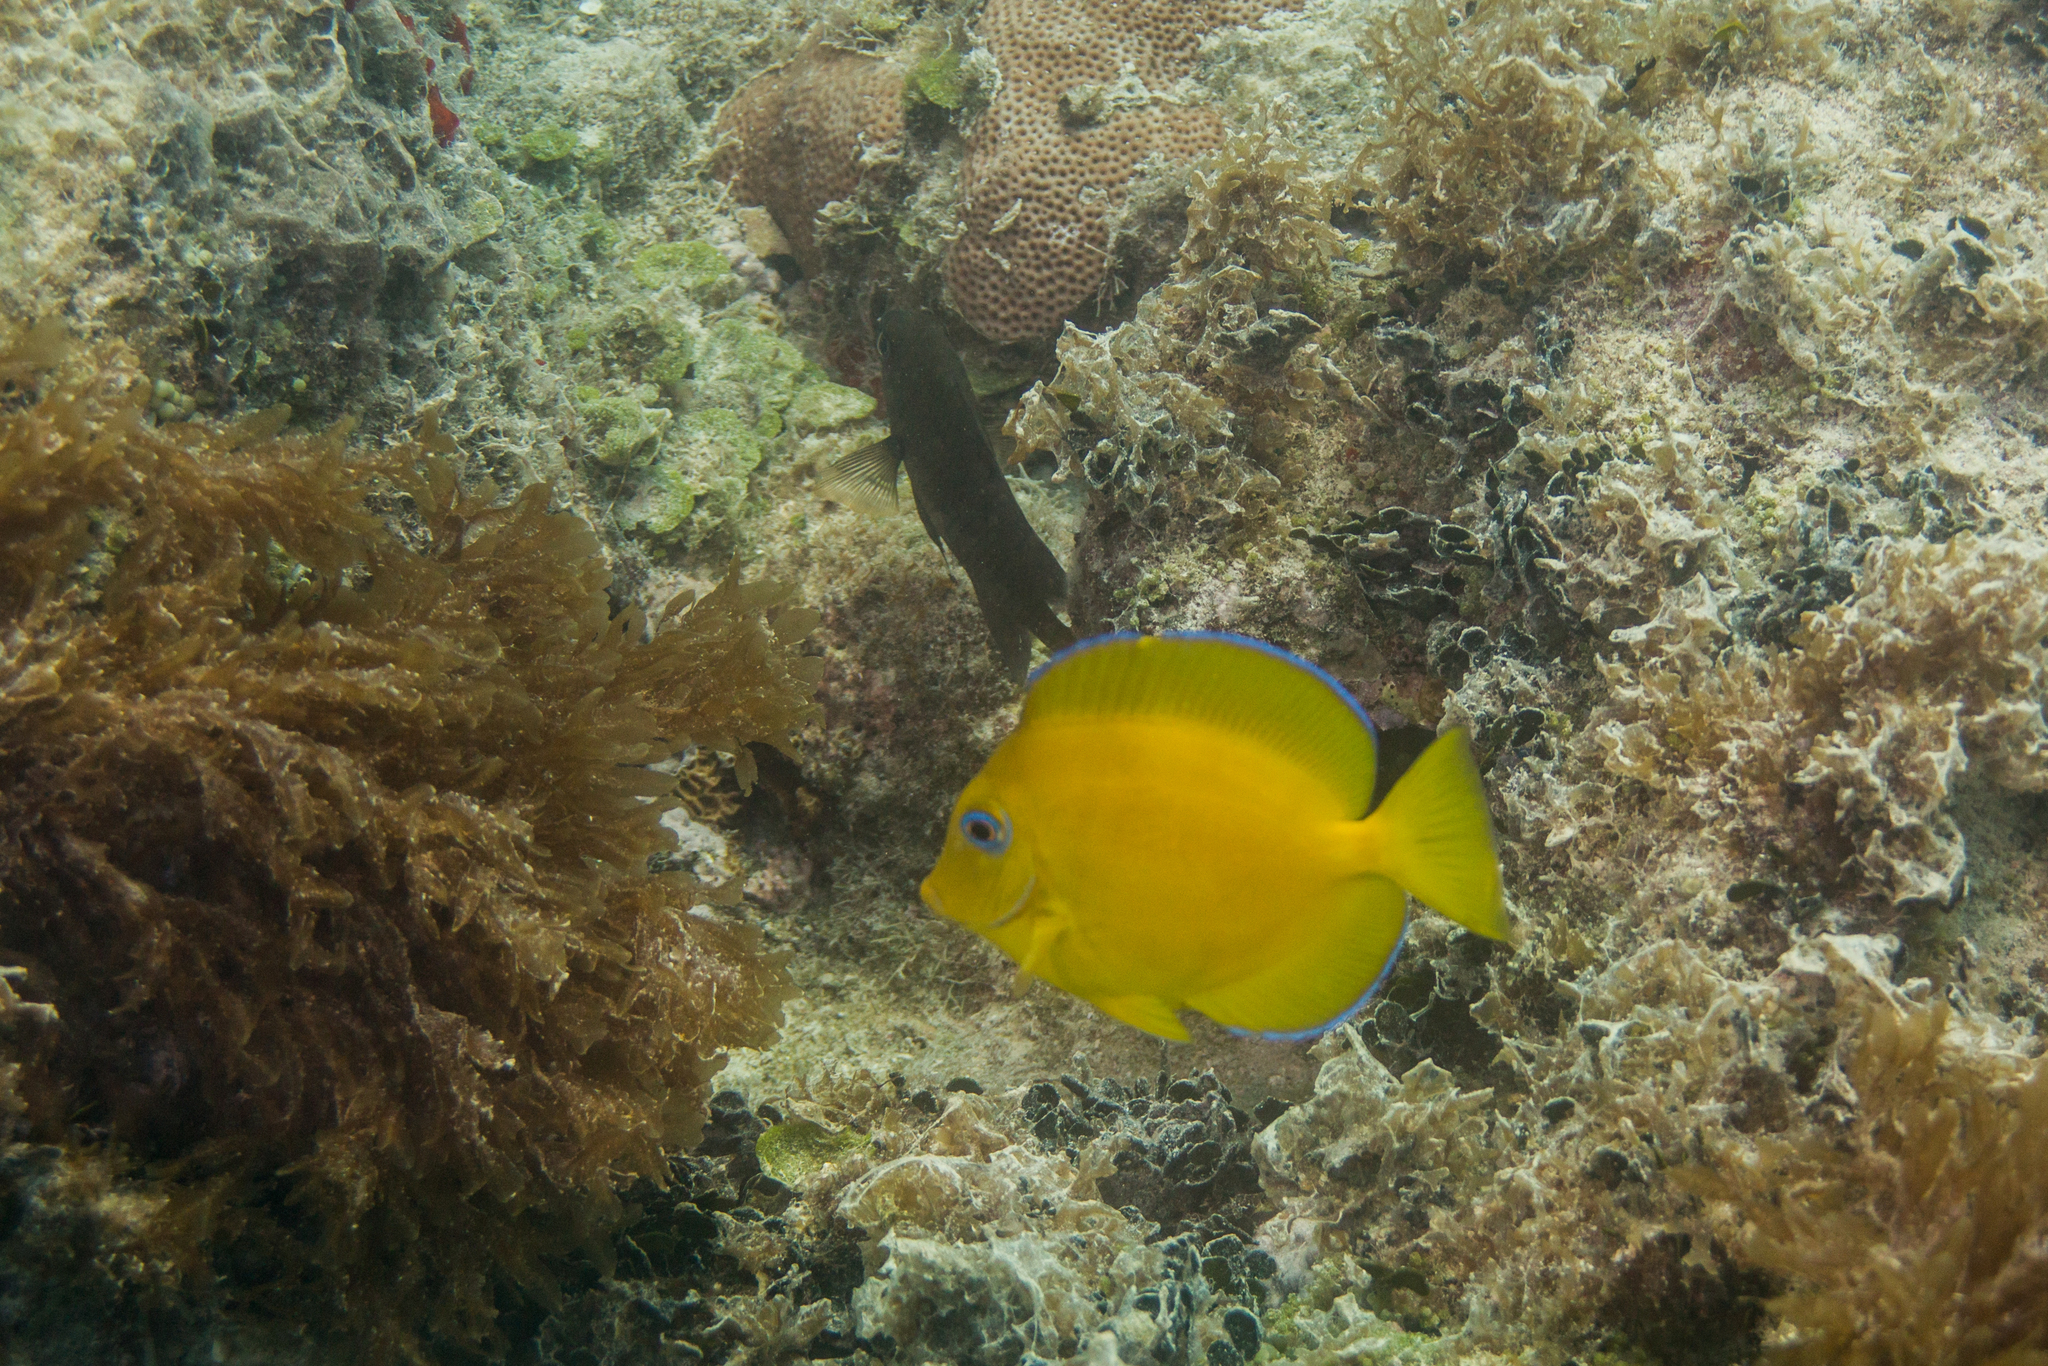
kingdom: Animalia
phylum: Chordata
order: Perciformes
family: Acanthuridae
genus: Acanthurus
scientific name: Acanthurus coeruleus
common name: Blue tang
